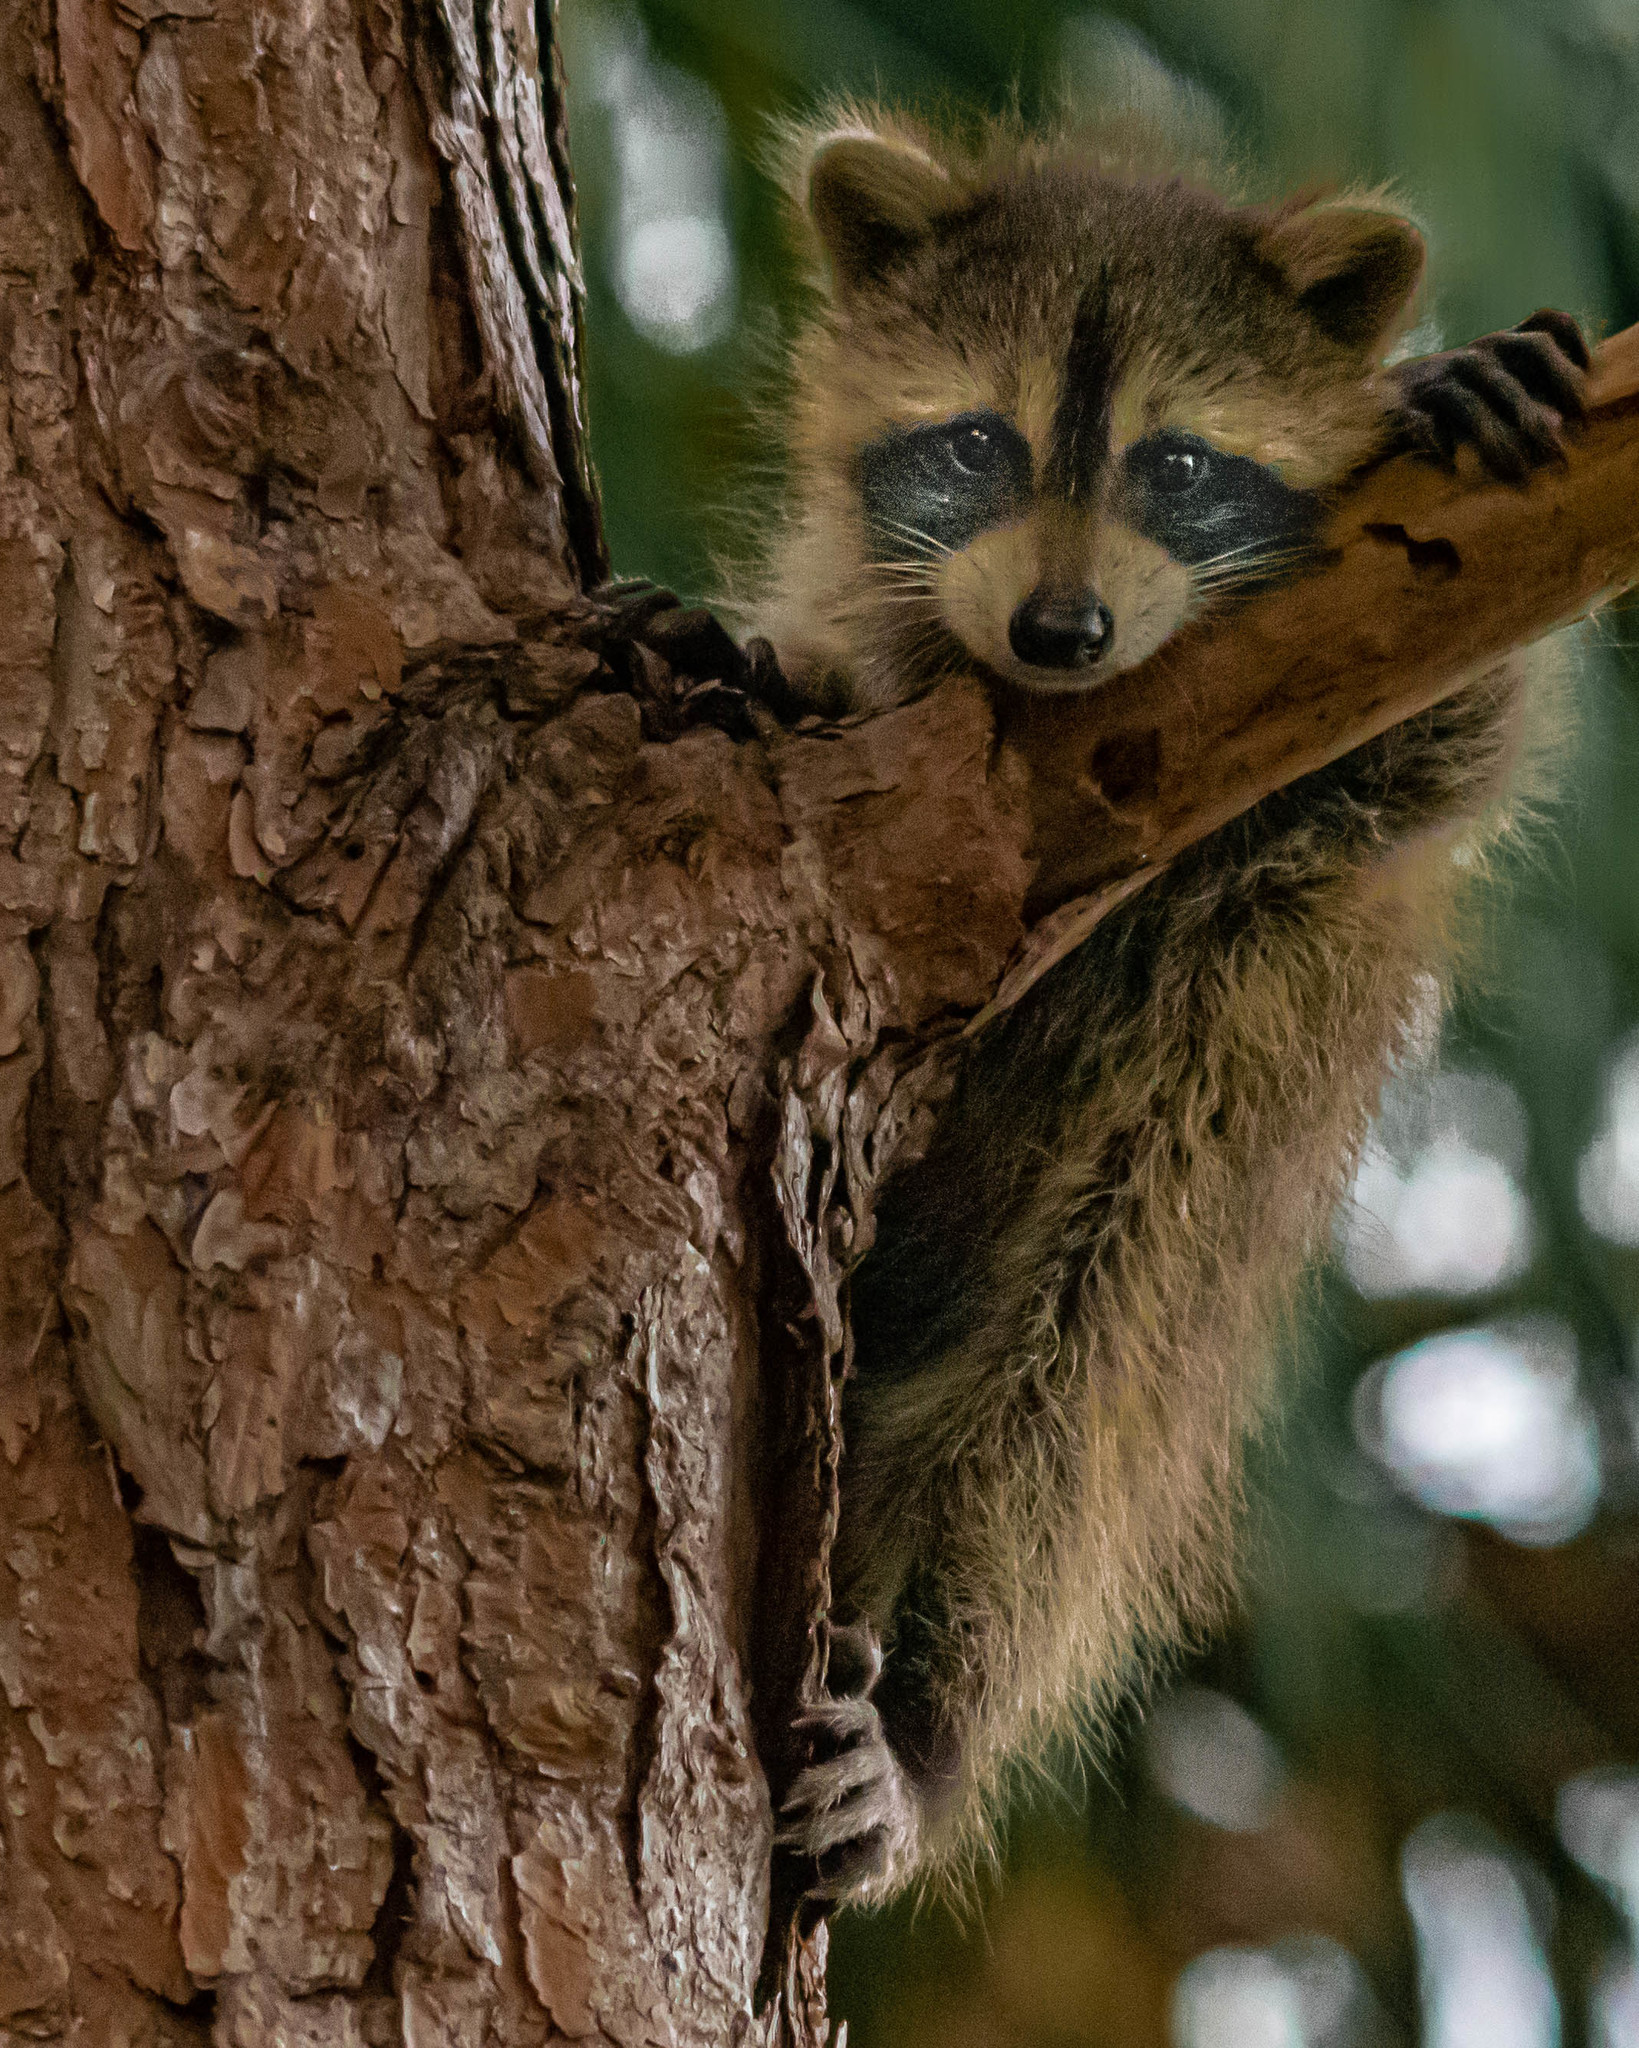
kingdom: Animalia
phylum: Chordata
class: Mammalia
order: Carnivora
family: Procyonidae
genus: Procyon
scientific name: Procyon lotor
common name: Raccoon
